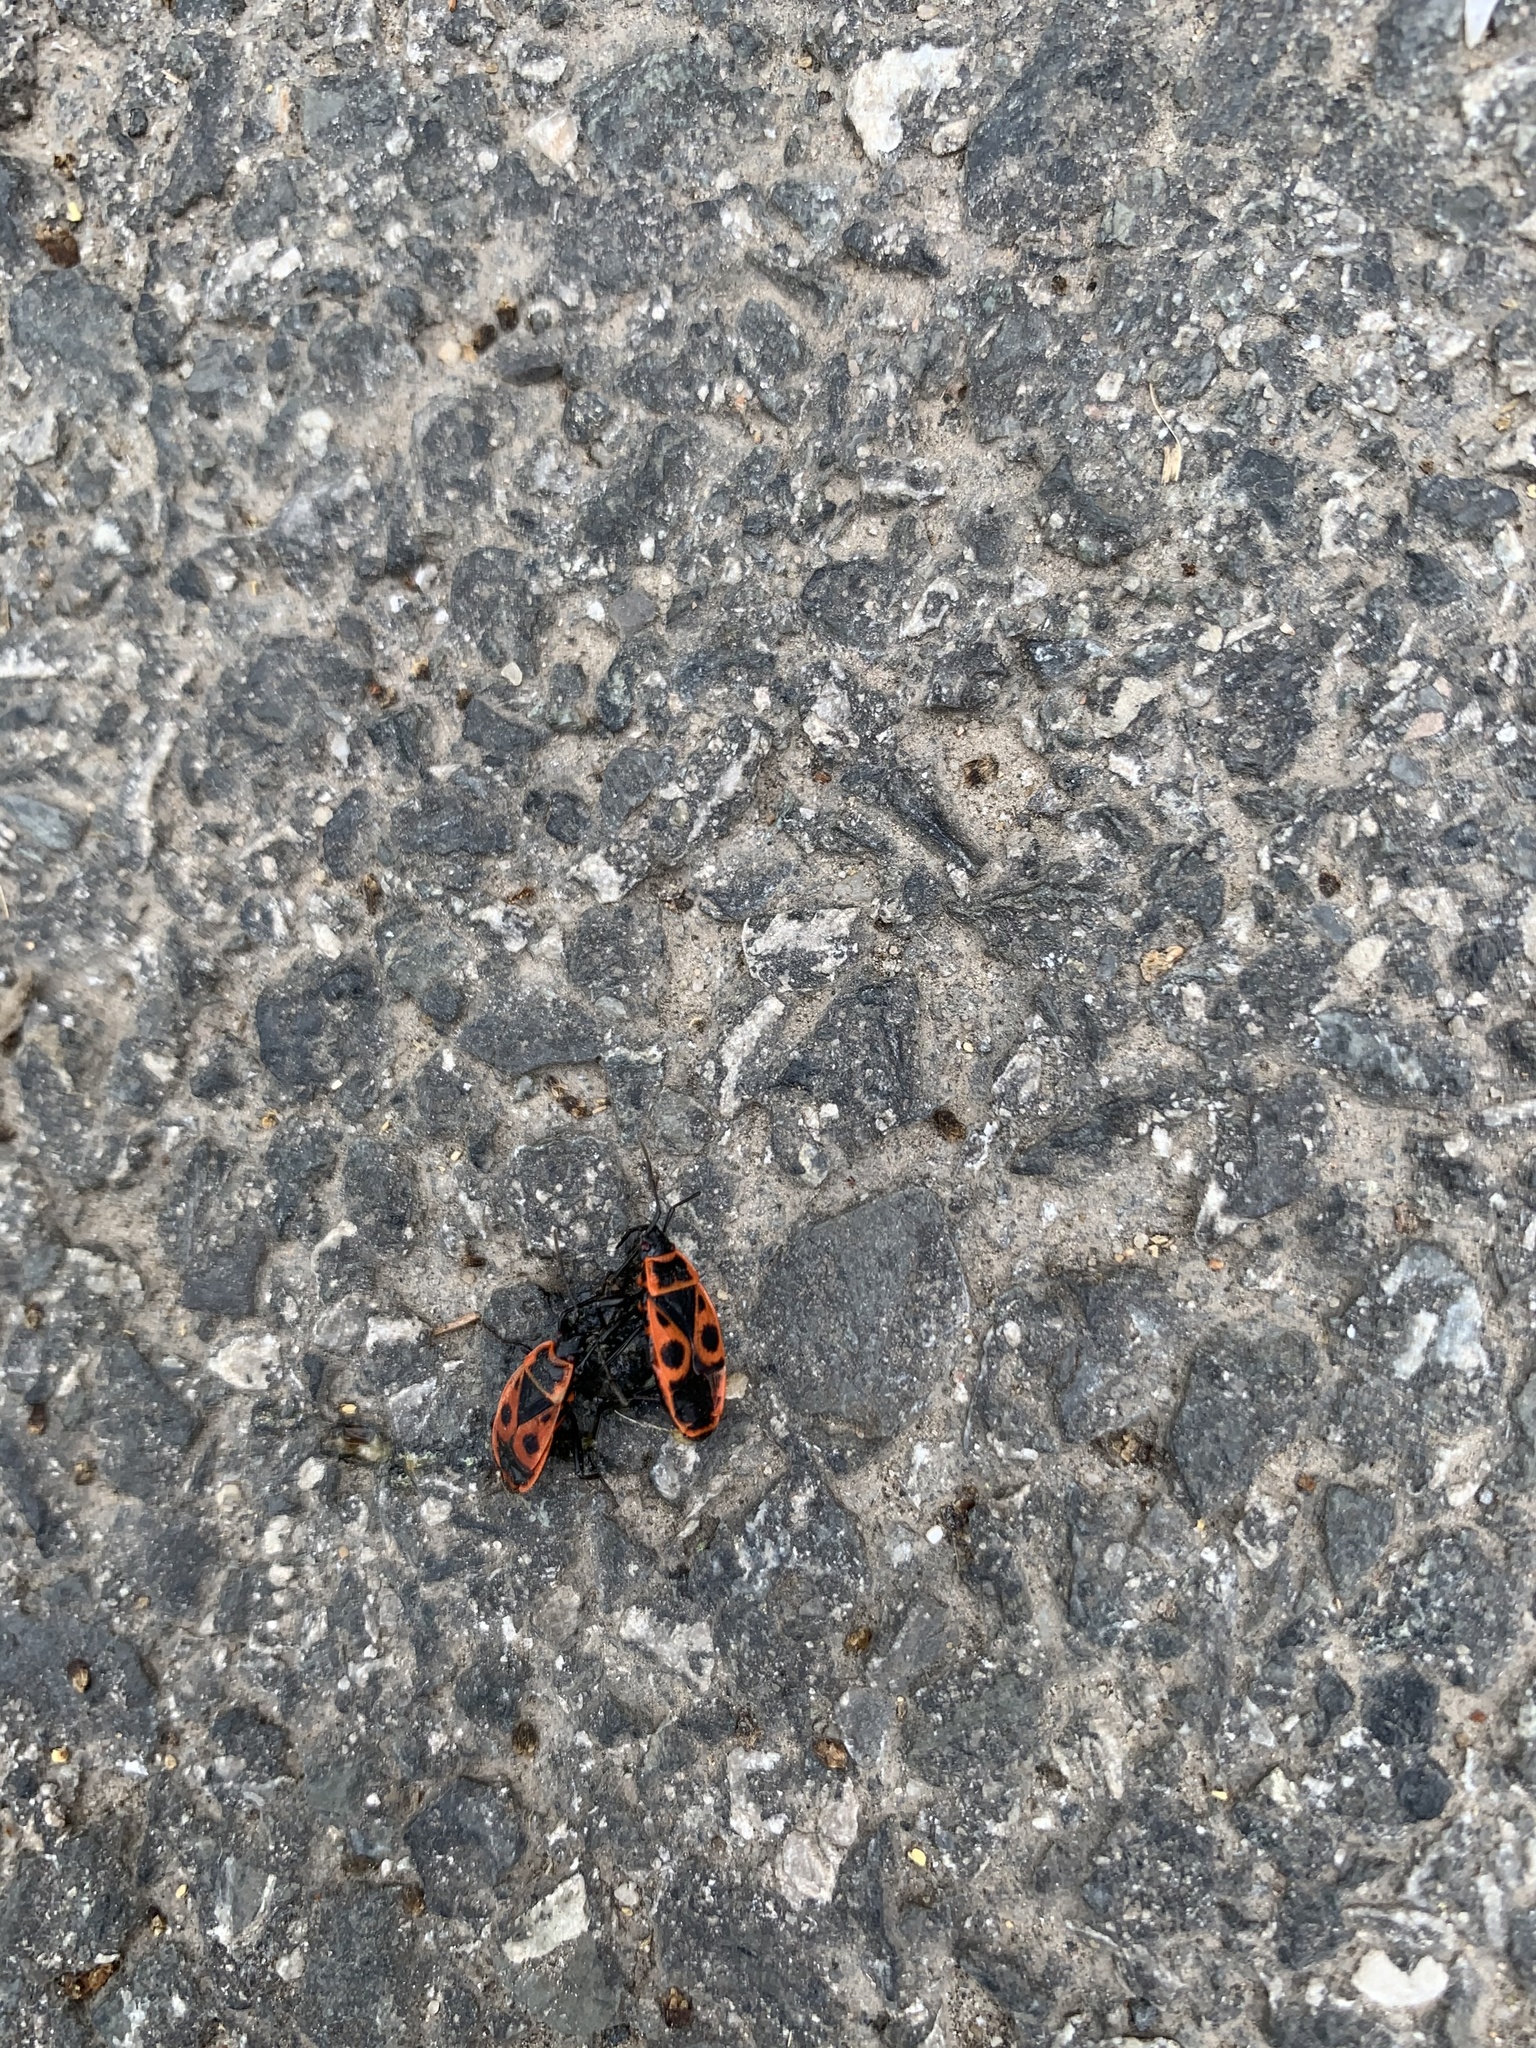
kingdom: Animalia
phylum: Arthropoda
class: Insecta
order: Hemiptera
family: Pyrrhocoridae
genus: Pyrrhocoris
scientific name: Pyrrhocoris apterus
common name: Firebug
